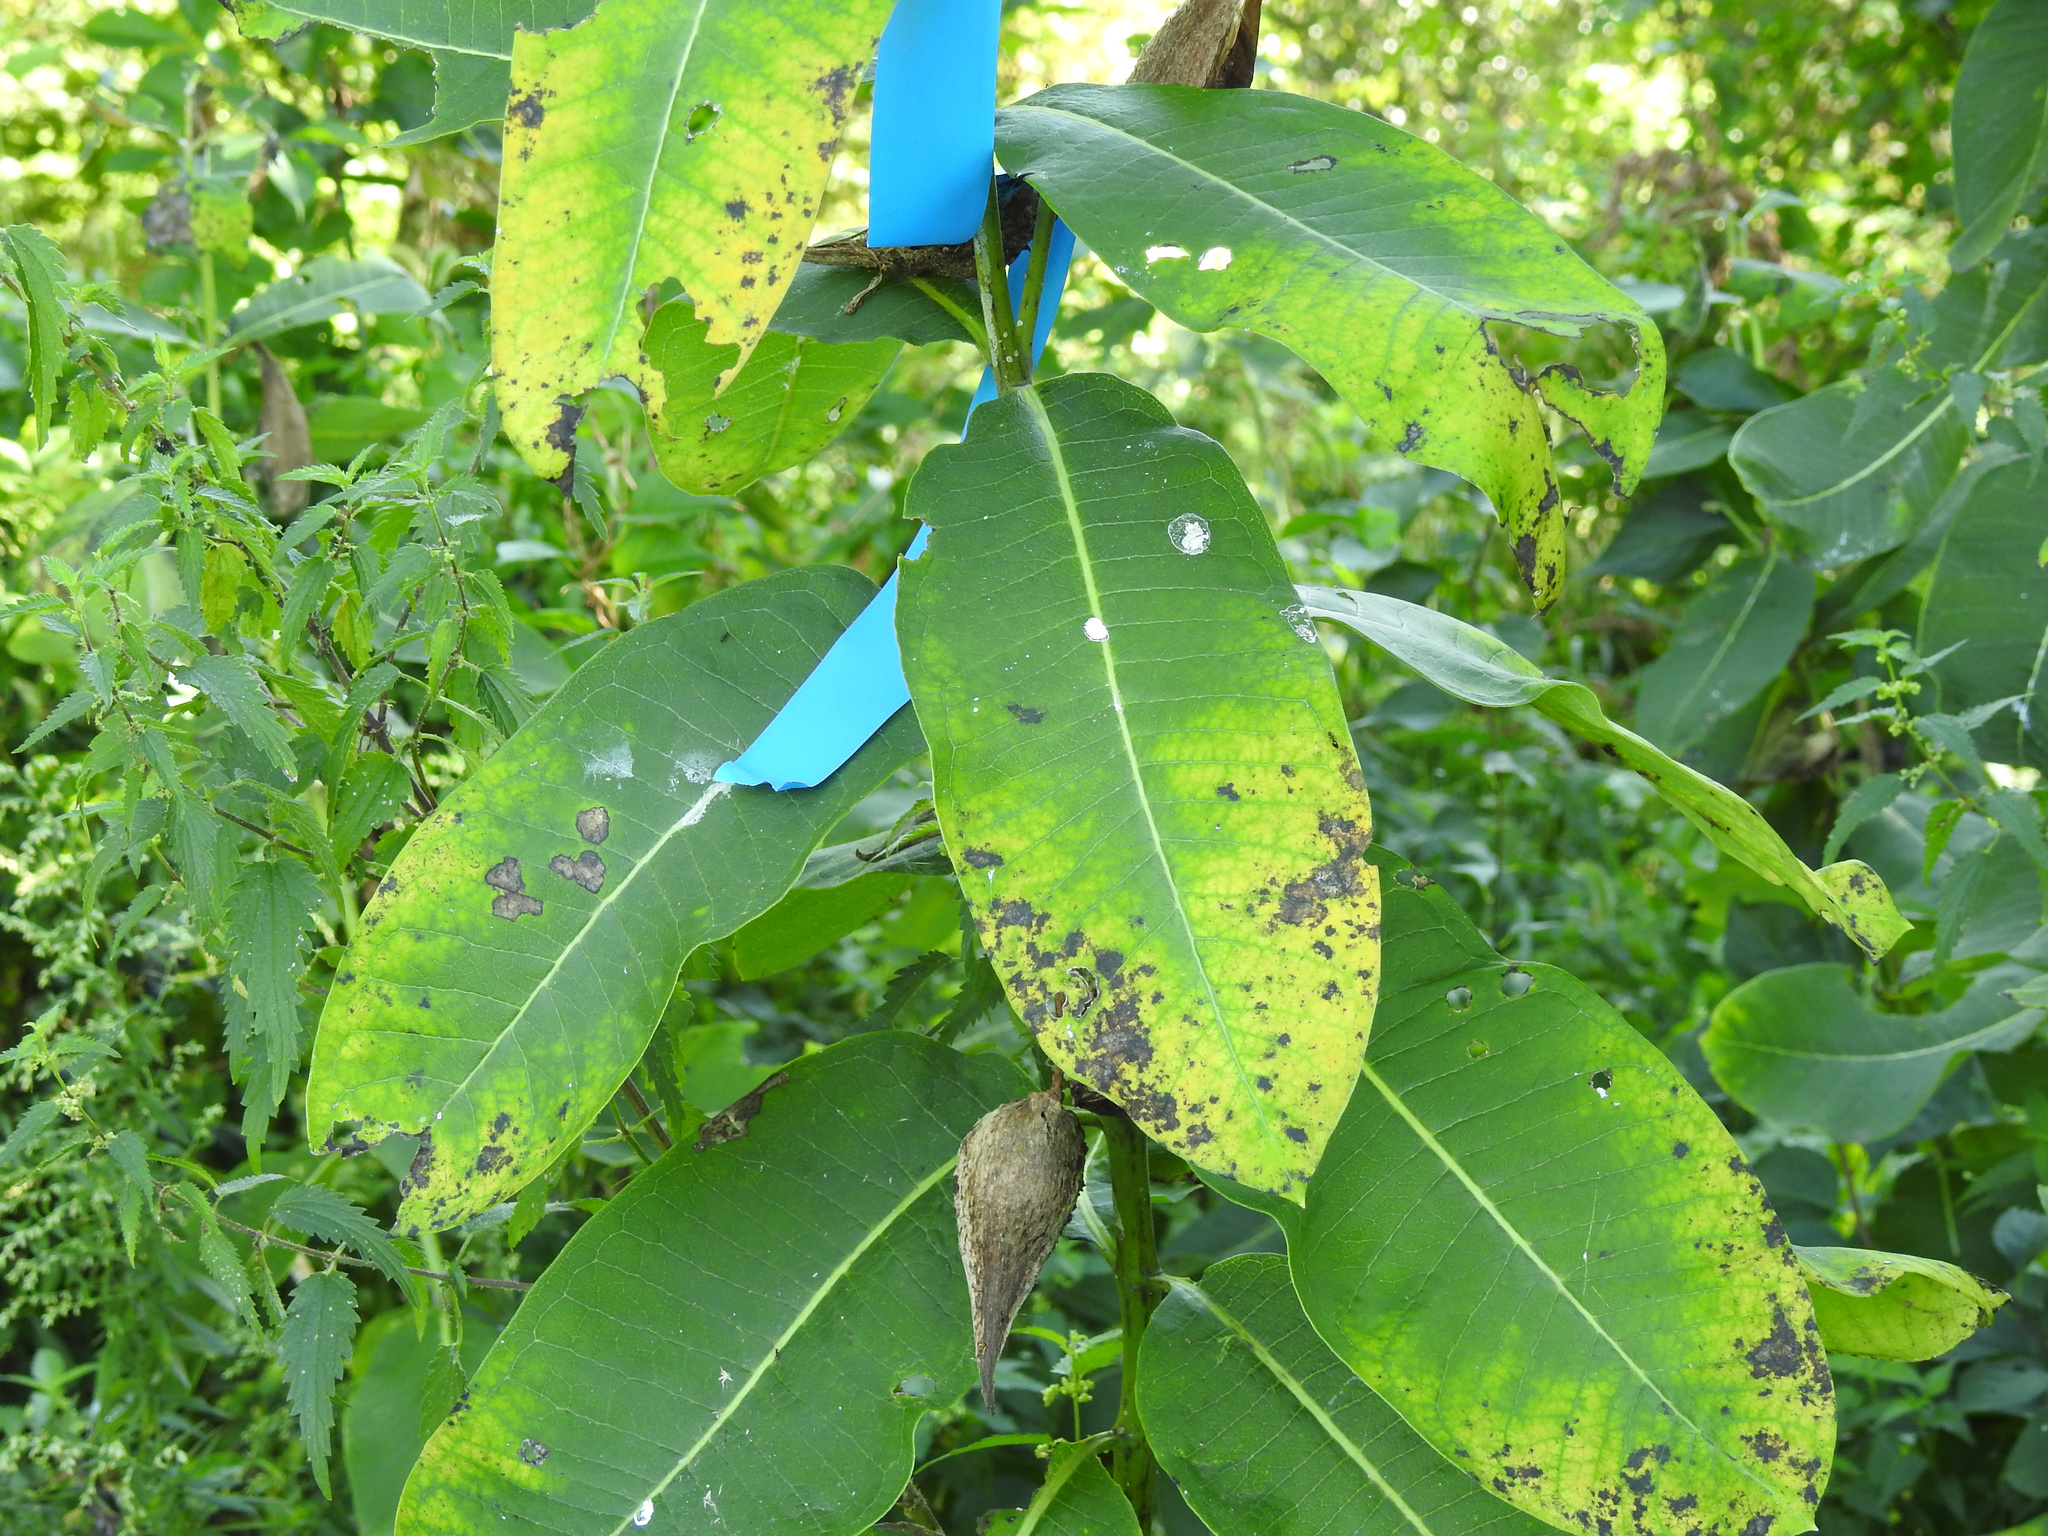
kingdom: Plantae
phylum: Tracheophyta
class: Magnoliopsida
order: Gentianales
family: Apocynaceae
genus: Asclepias
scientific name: Asclepias syriaca
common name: Common milkweed
